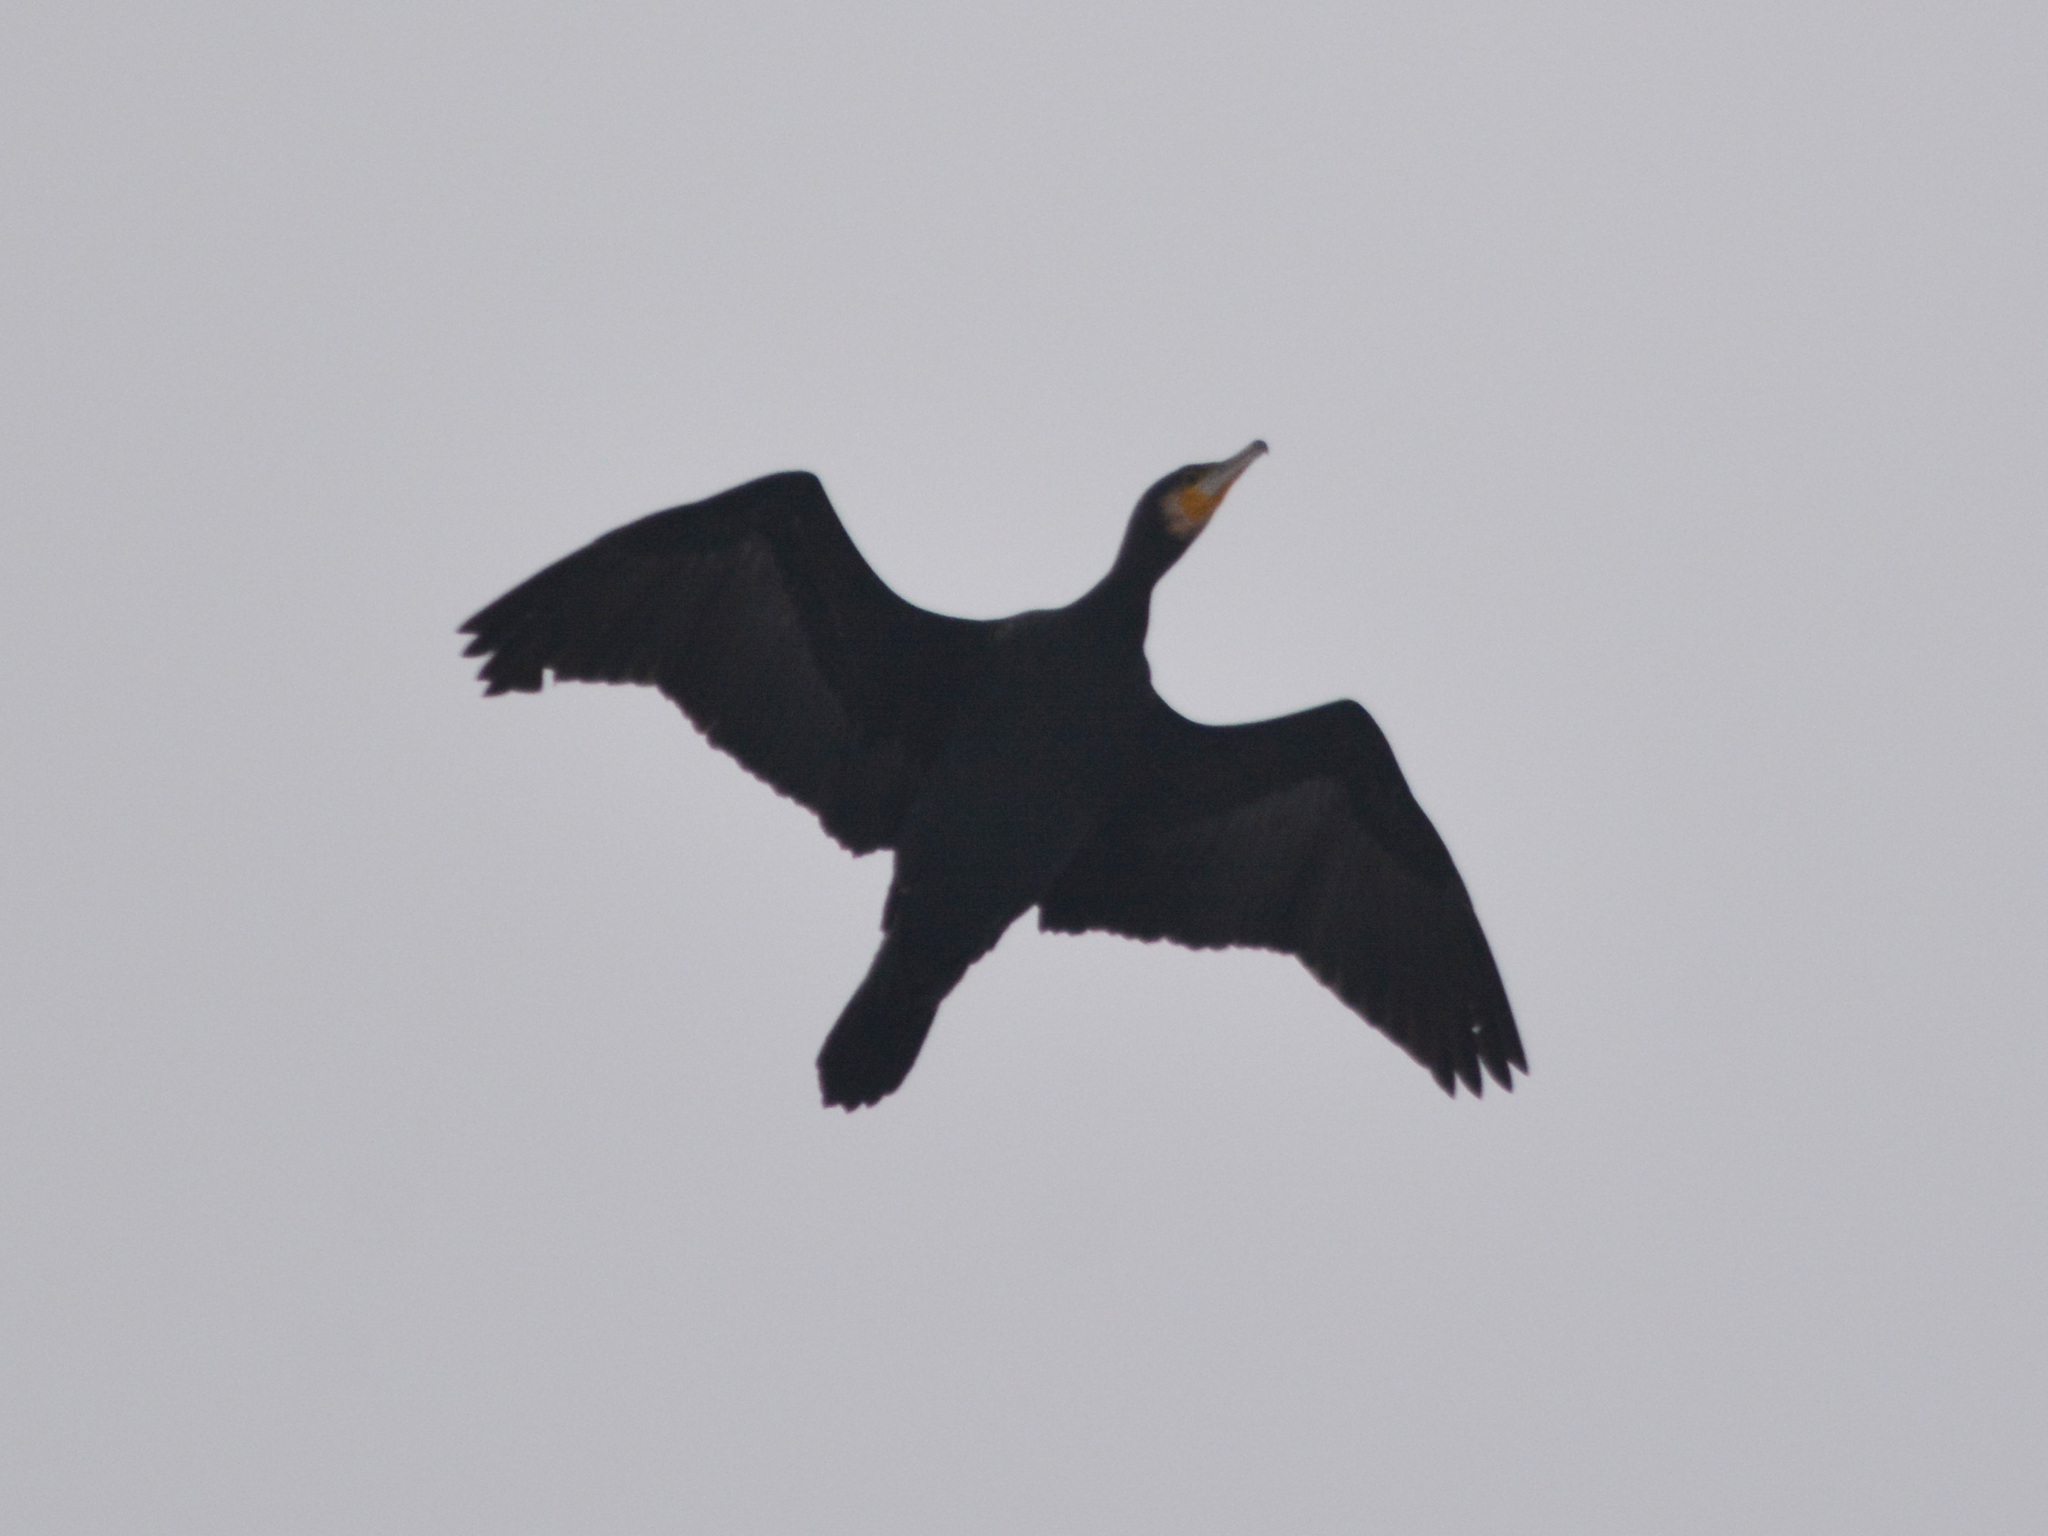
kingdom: Animalia
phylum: Chordata
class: Aves
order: Suliformes
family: Phalacrocoracidae
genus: Phalacrocorax
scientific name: Phalacrocorax carbo
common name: Great cormorant
